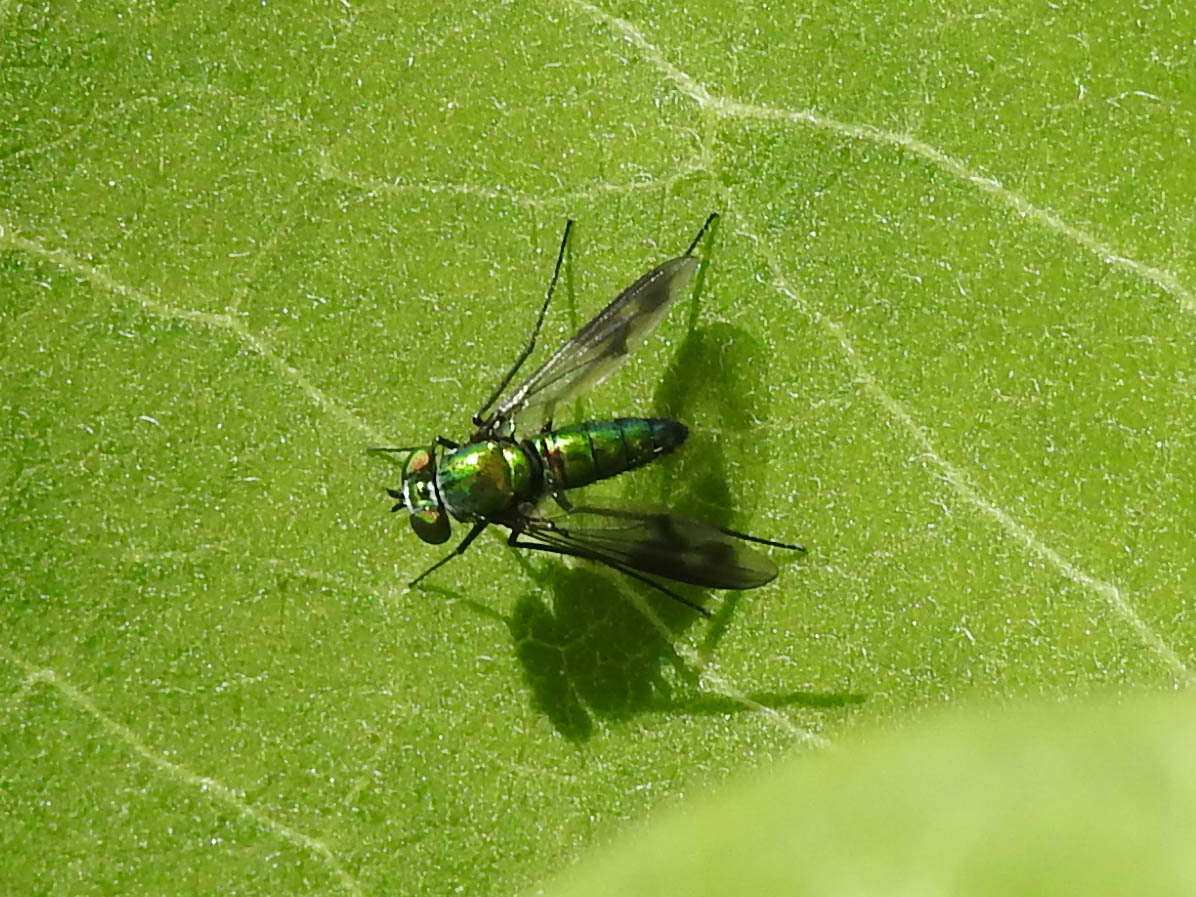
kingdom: Animalia
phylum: Arthropoda
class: Insecta
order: Diptera
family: Dolichopodidae
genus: Condylostylus
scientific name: Condylostylus patibulatus
